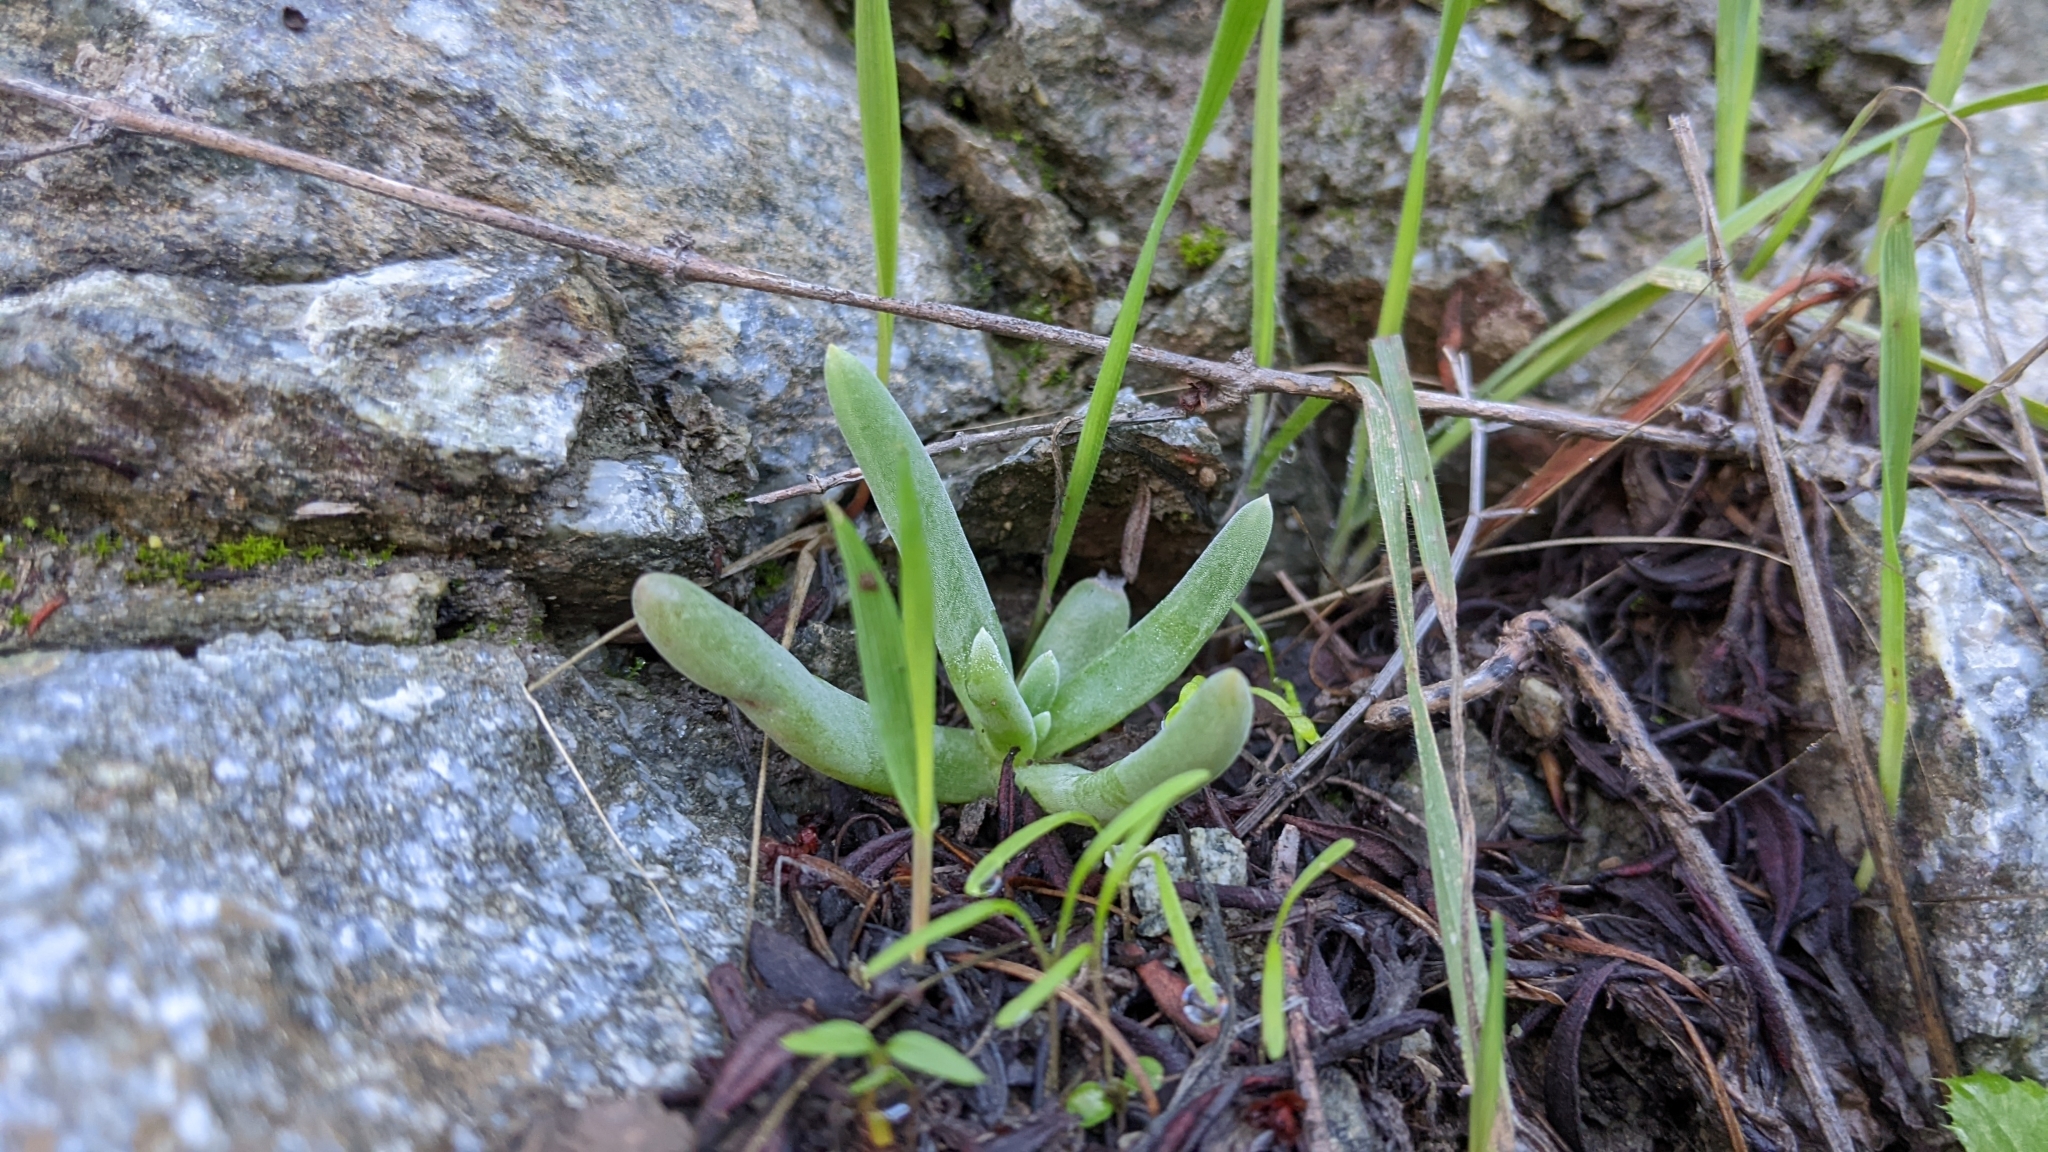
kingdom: Plantae
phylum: Tracheophyta
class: Magnoliopsida
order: Saxifragales
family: Crassulaceae
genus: Dudleya
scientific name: Dudleya densiflora
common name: San gabriel mountains dudleya
